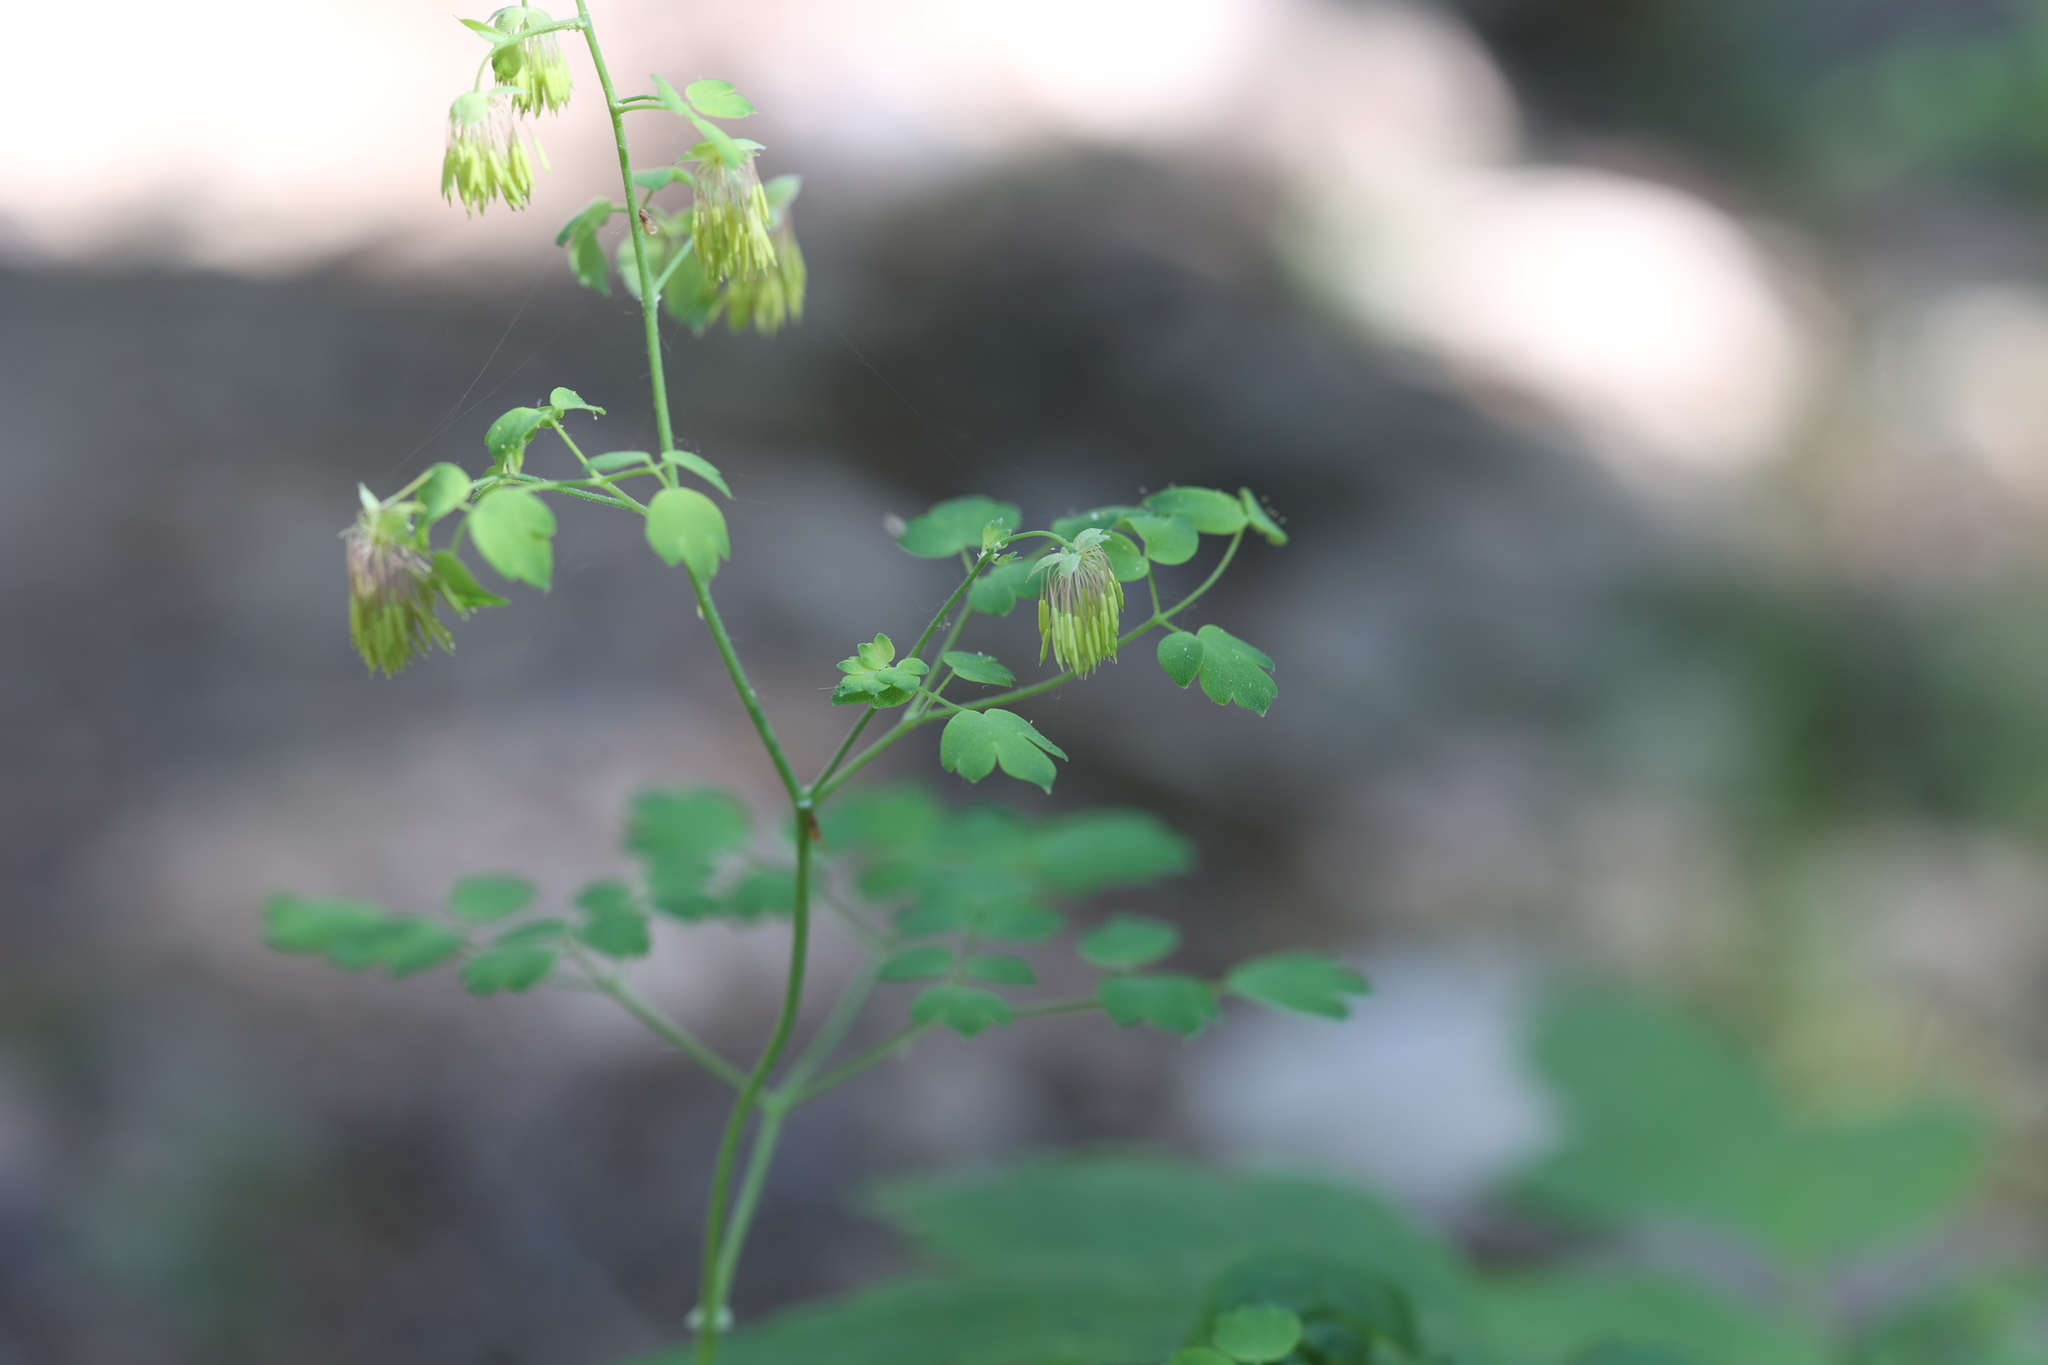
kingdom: Plantae
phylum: Tracheophyta
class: Magnoliopsida
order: Ranunculales
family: Ranunculaceae
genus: Thalictrum
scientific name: Thalictrum fendleri
